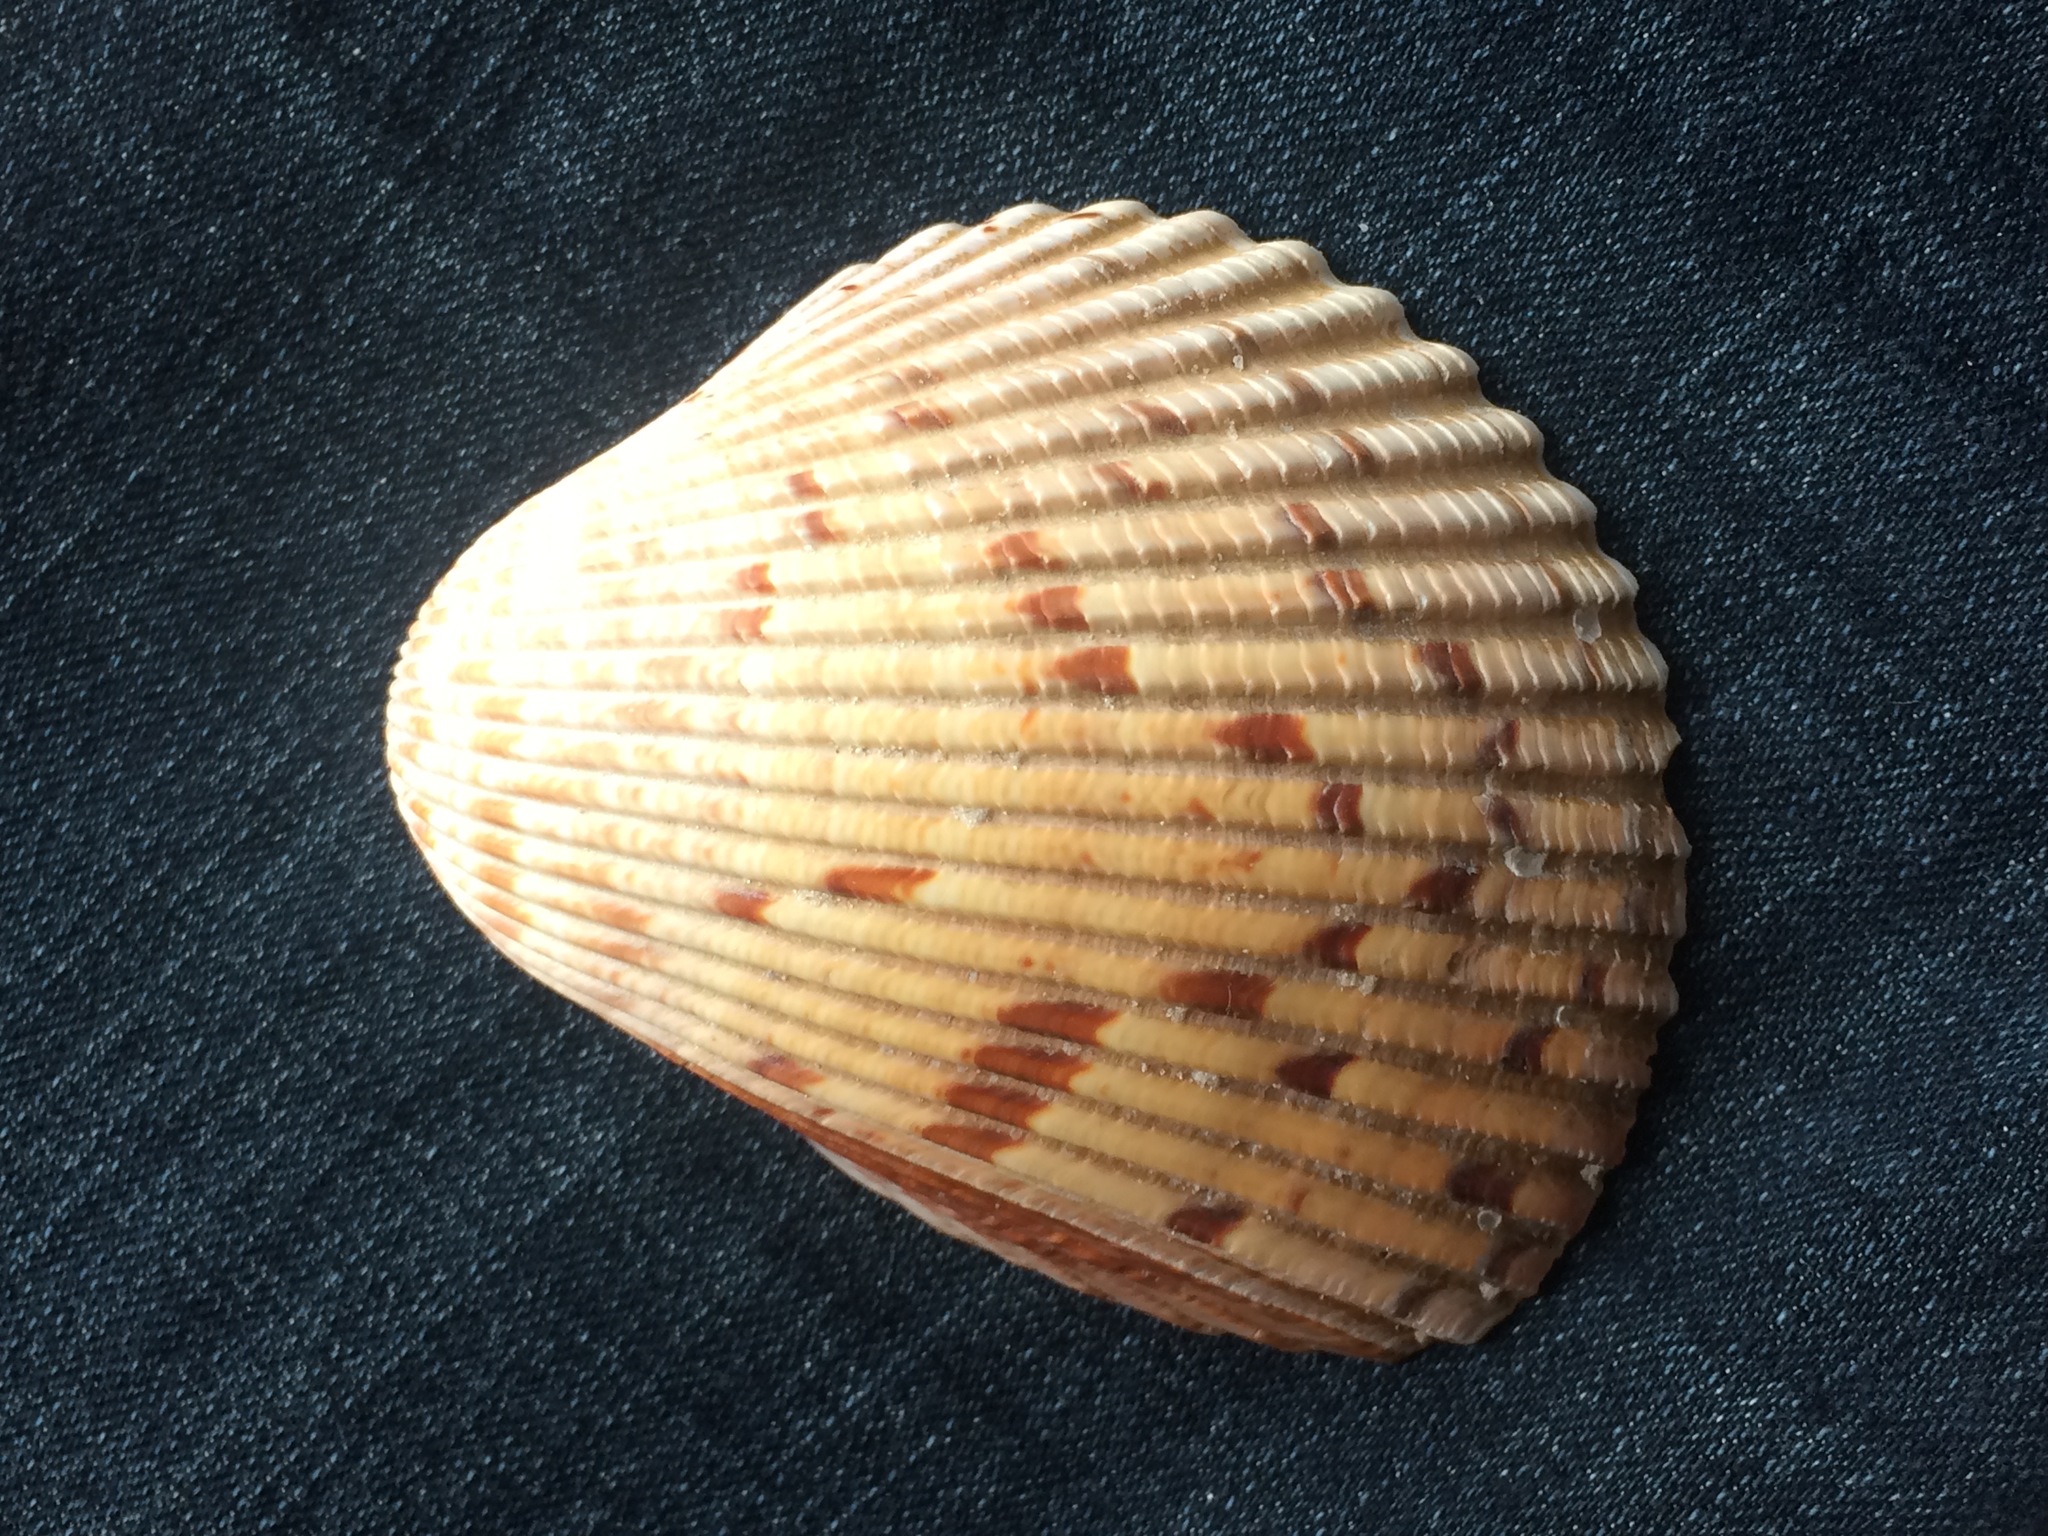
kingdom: Animalia
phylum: Mollusca
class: Bivalvia
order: Cardiida
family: Cardiidae
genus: Dinocardium
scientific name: Dinocardium robustum
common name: Atlantic giant cockle
